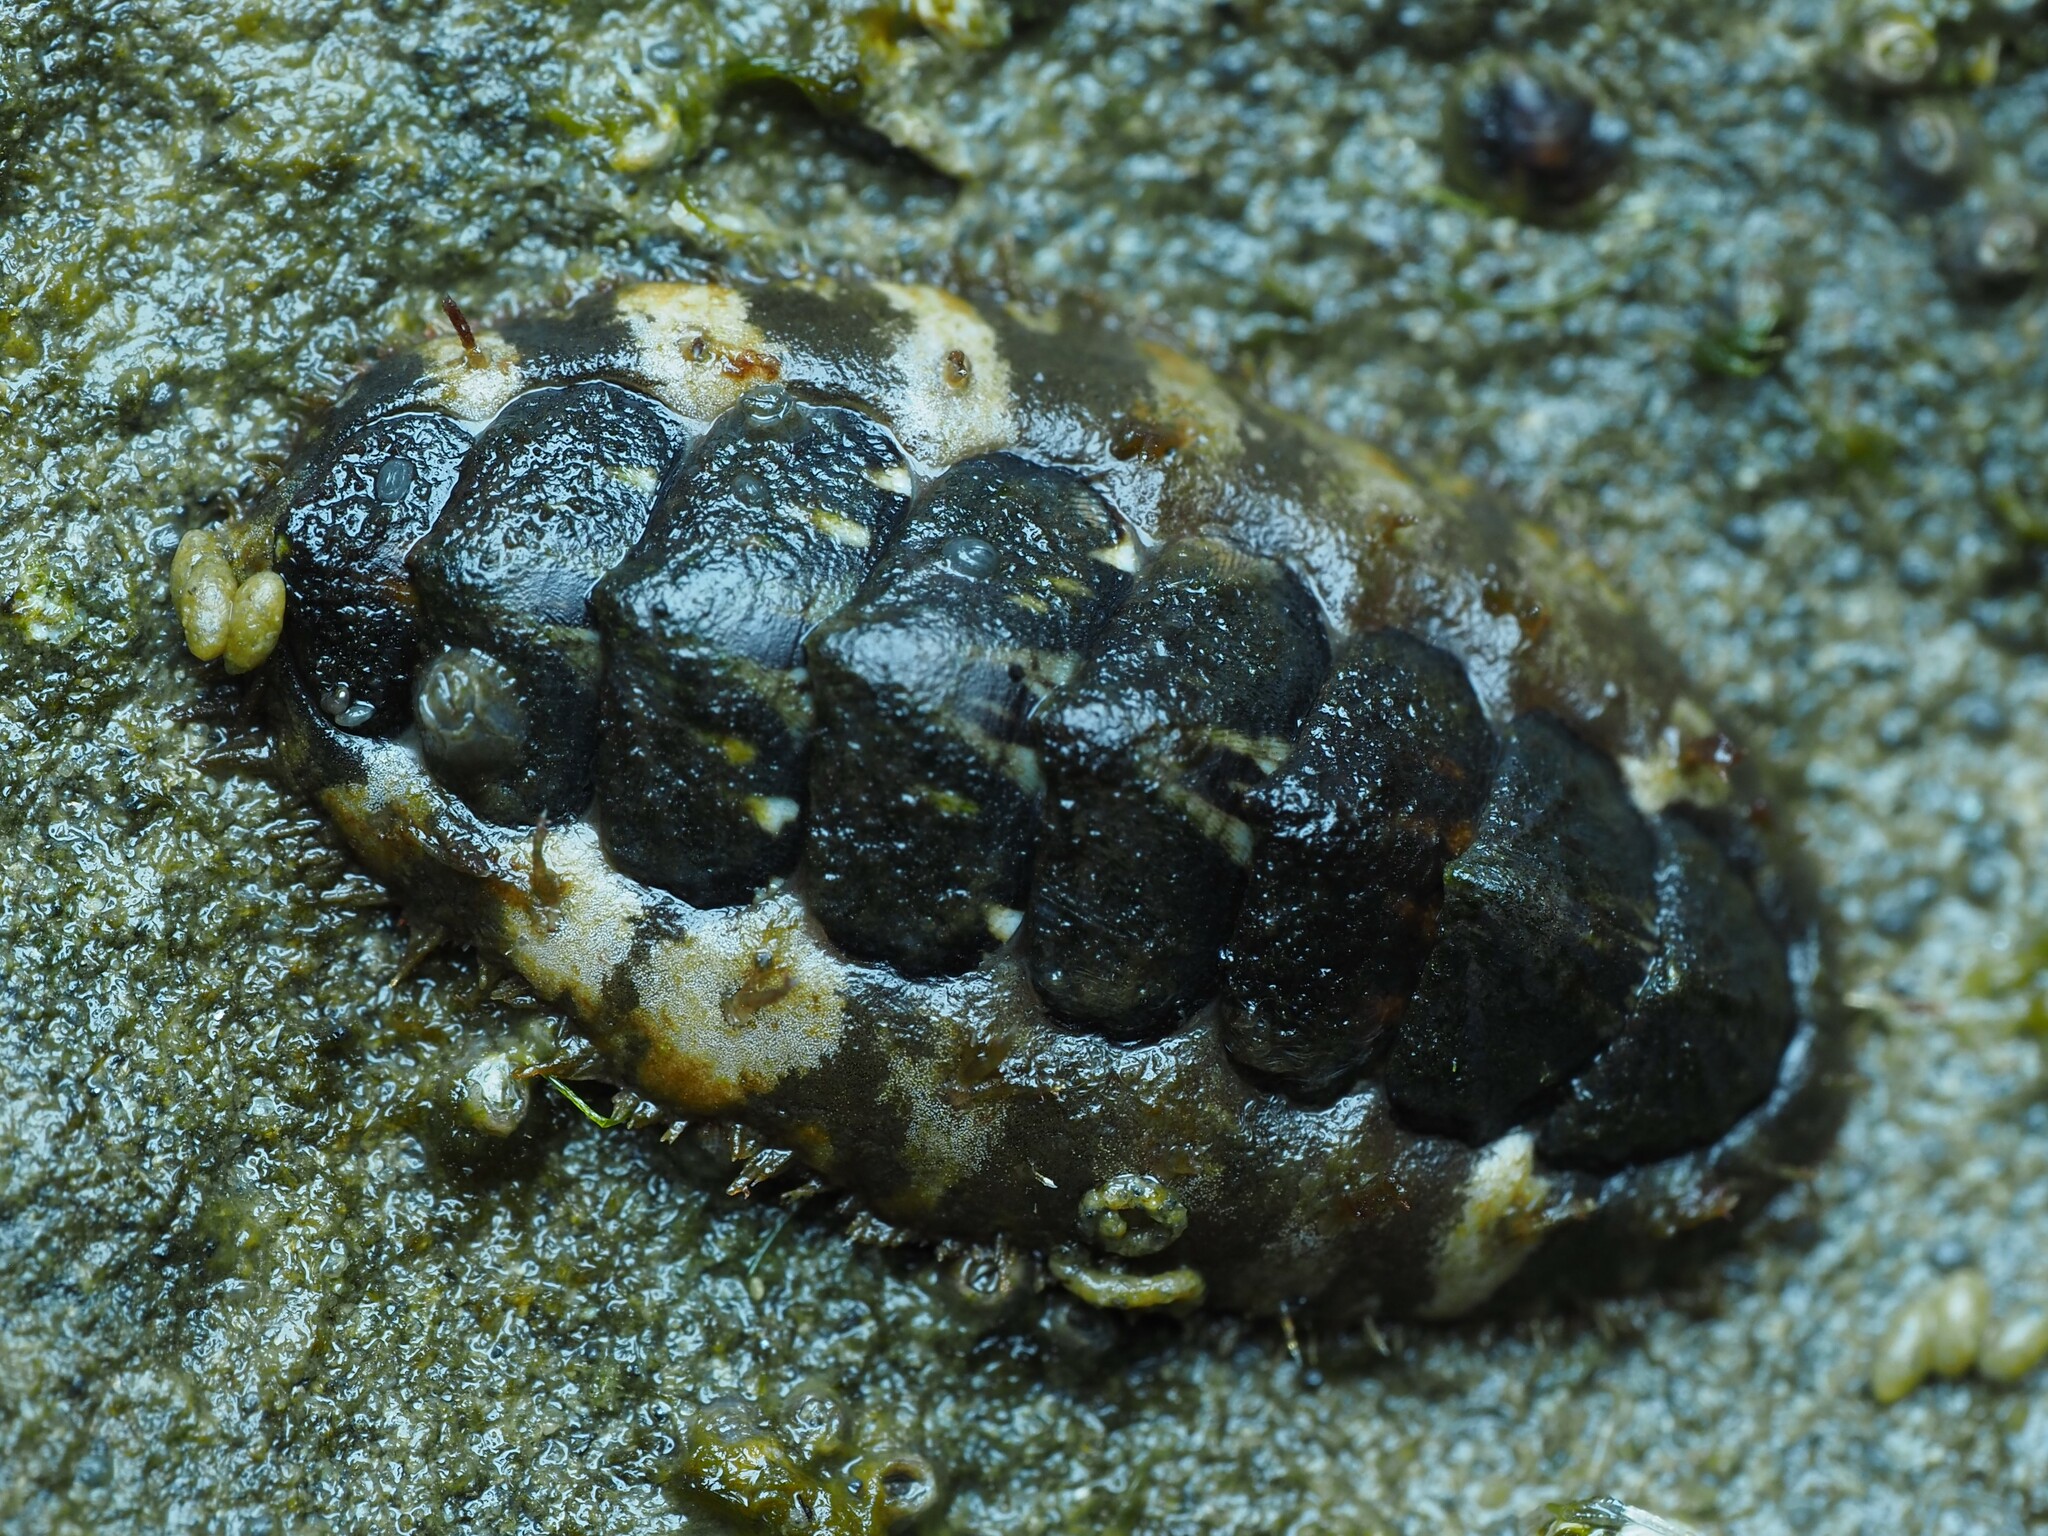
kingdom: Animalia
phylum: Mollusca
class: Polyplacophora
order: Chitonida
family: Mopaliidae
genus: Plaxiphora
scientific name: Plaxiphora caelata
